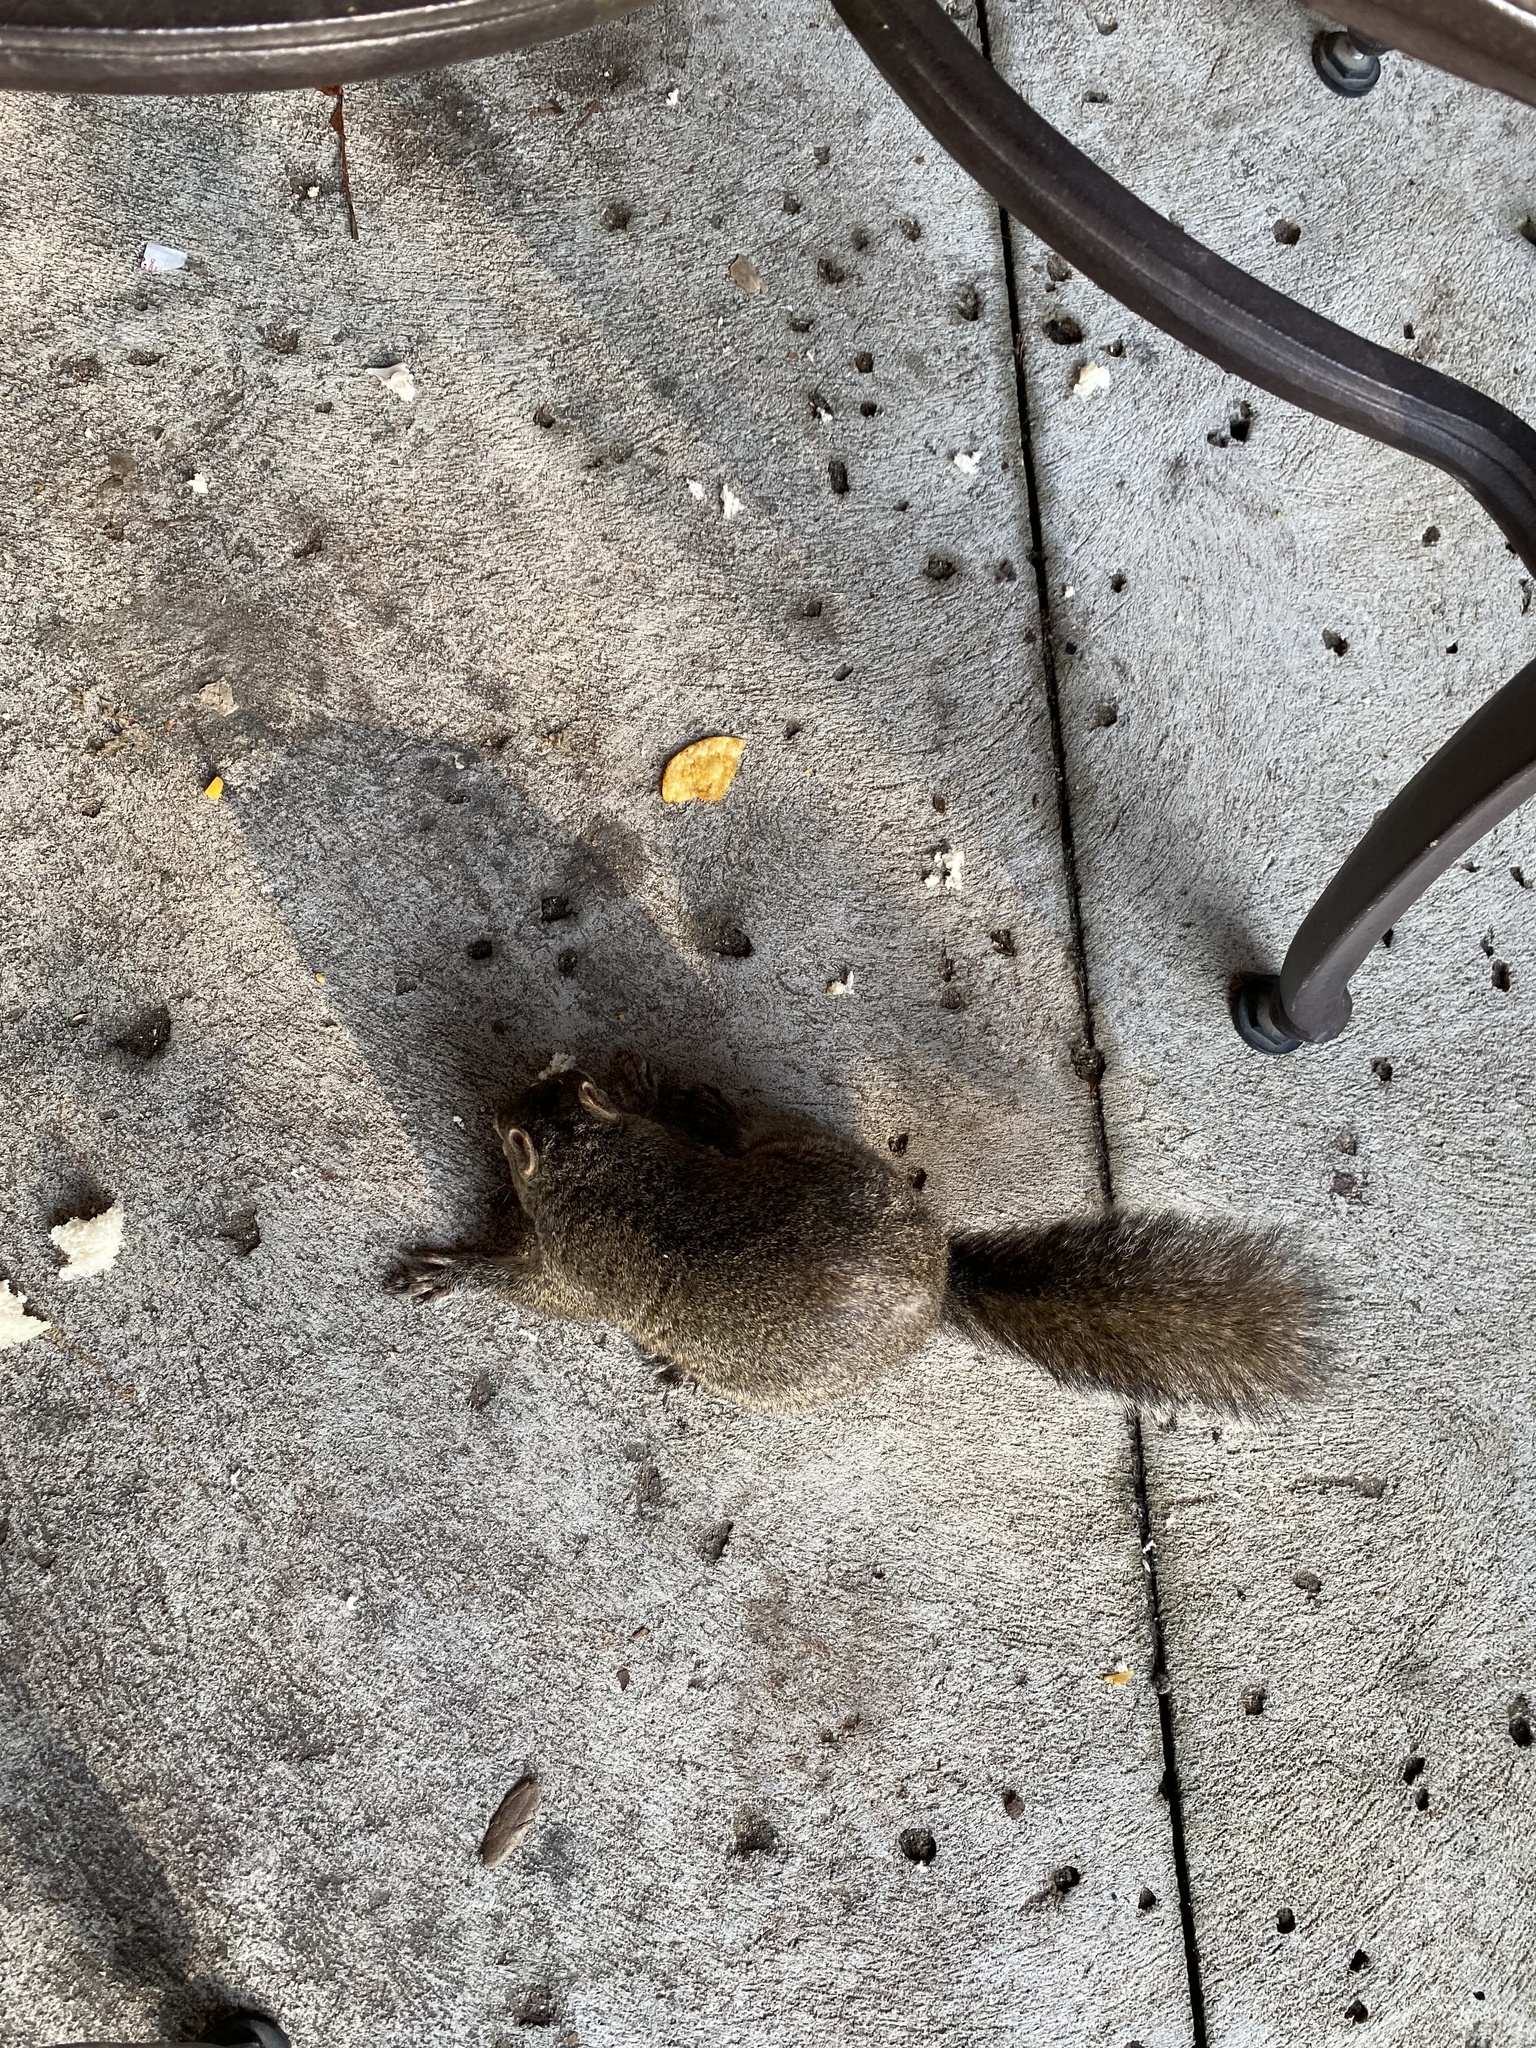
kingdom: Animalia
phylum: Chordata
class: Mammalia
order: Rodentia
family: Sciuridae
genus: Sciurus
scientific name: Sciurus carolinensis
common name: Eastern gray squirrel
